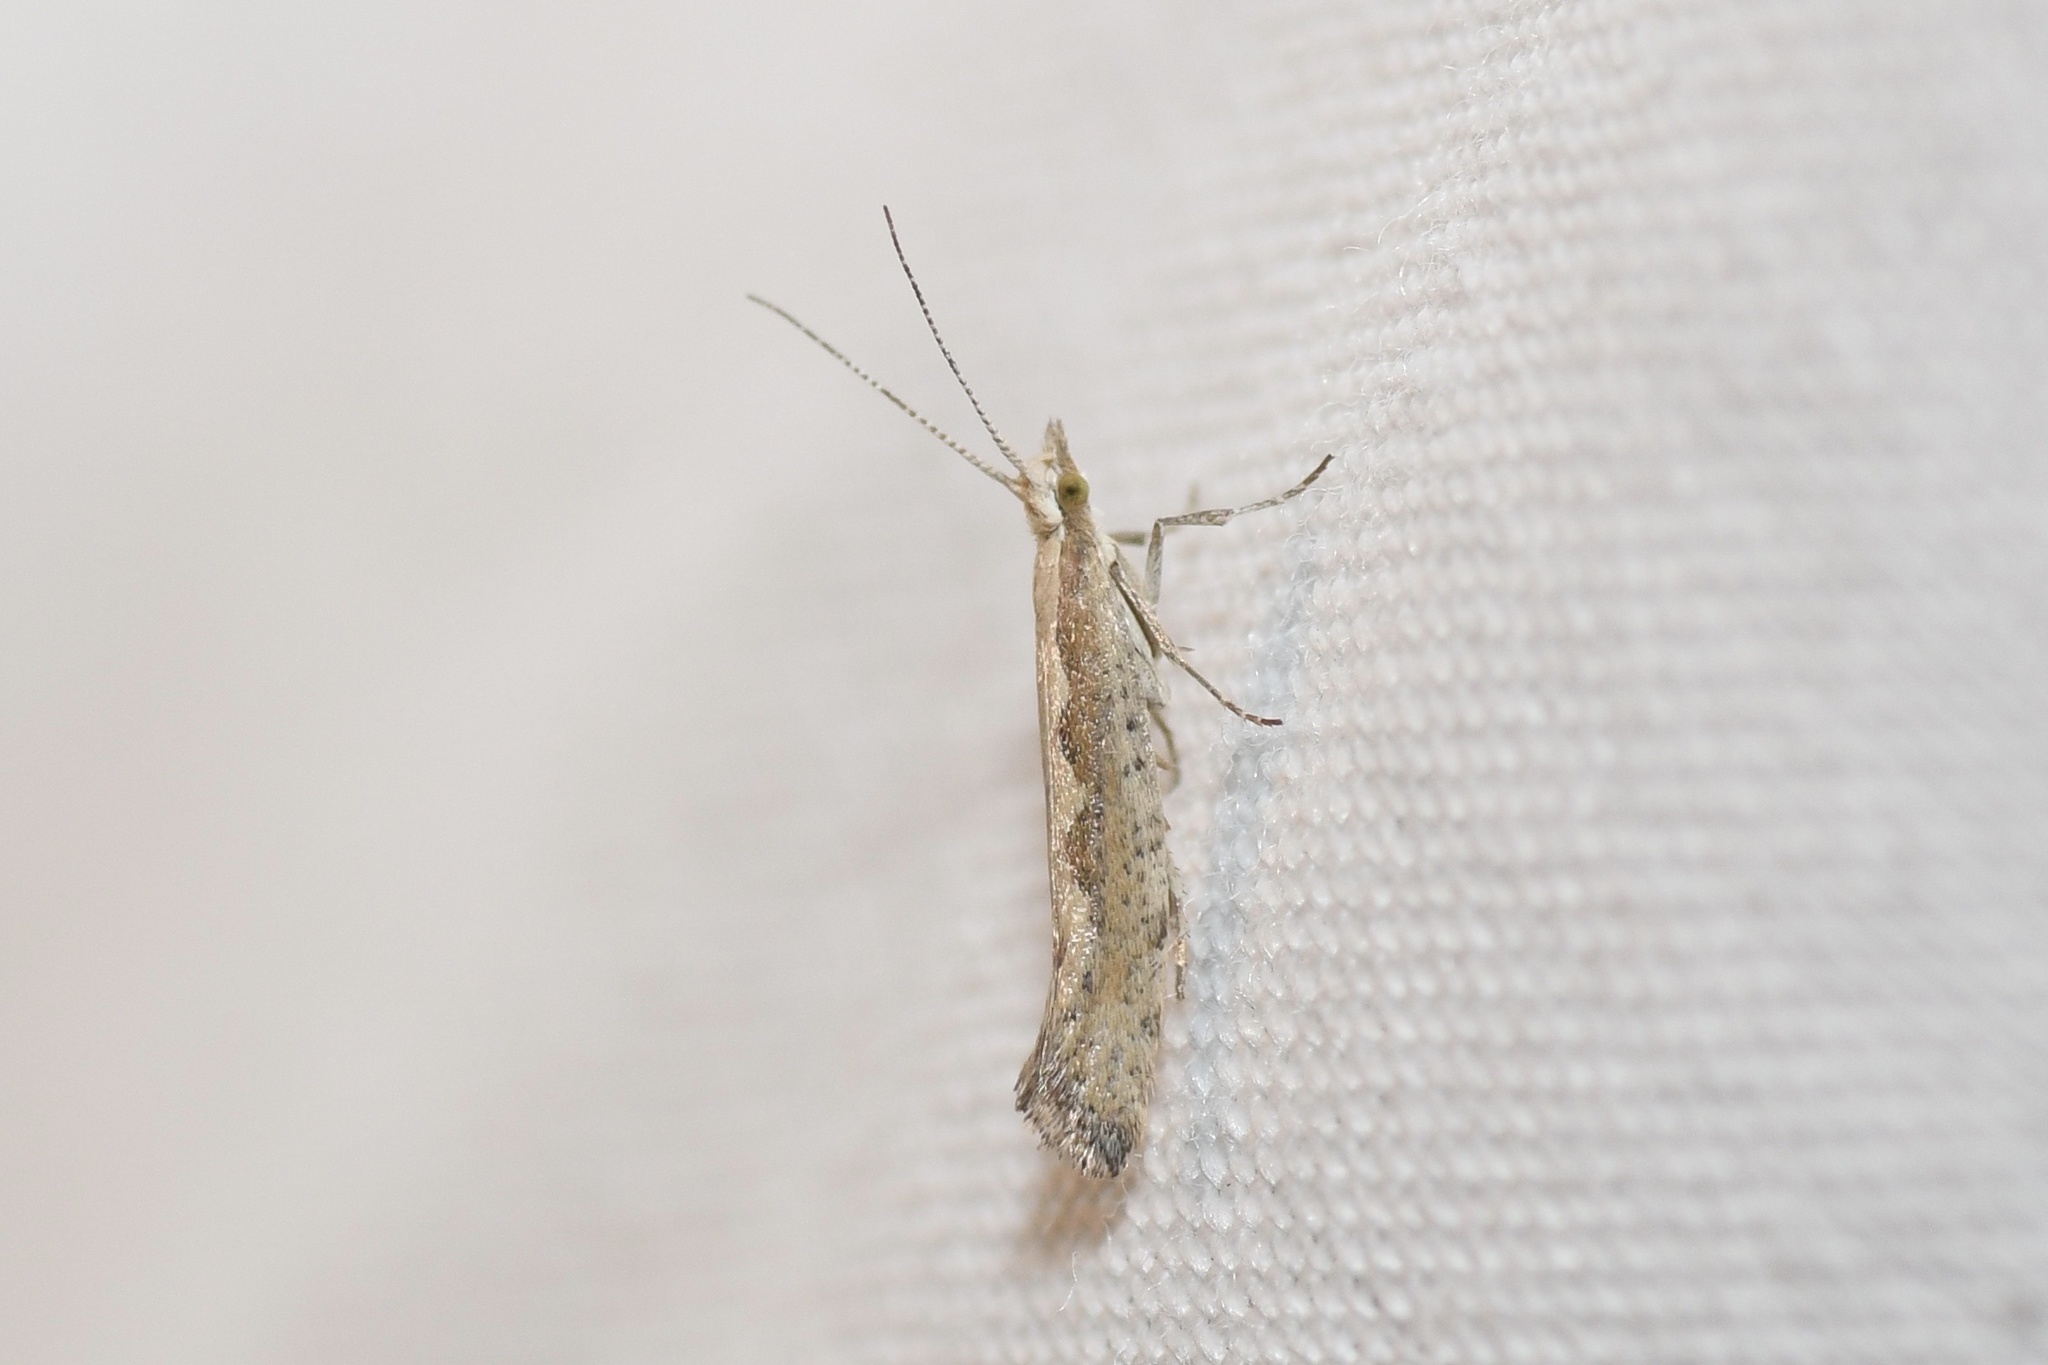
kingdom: Animalia
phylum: Arthropoda
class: Insecta
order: Lepidoptera
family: Plutellidae
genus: Plutella
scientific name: Plutella xylostella
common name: Diamond-back moth
